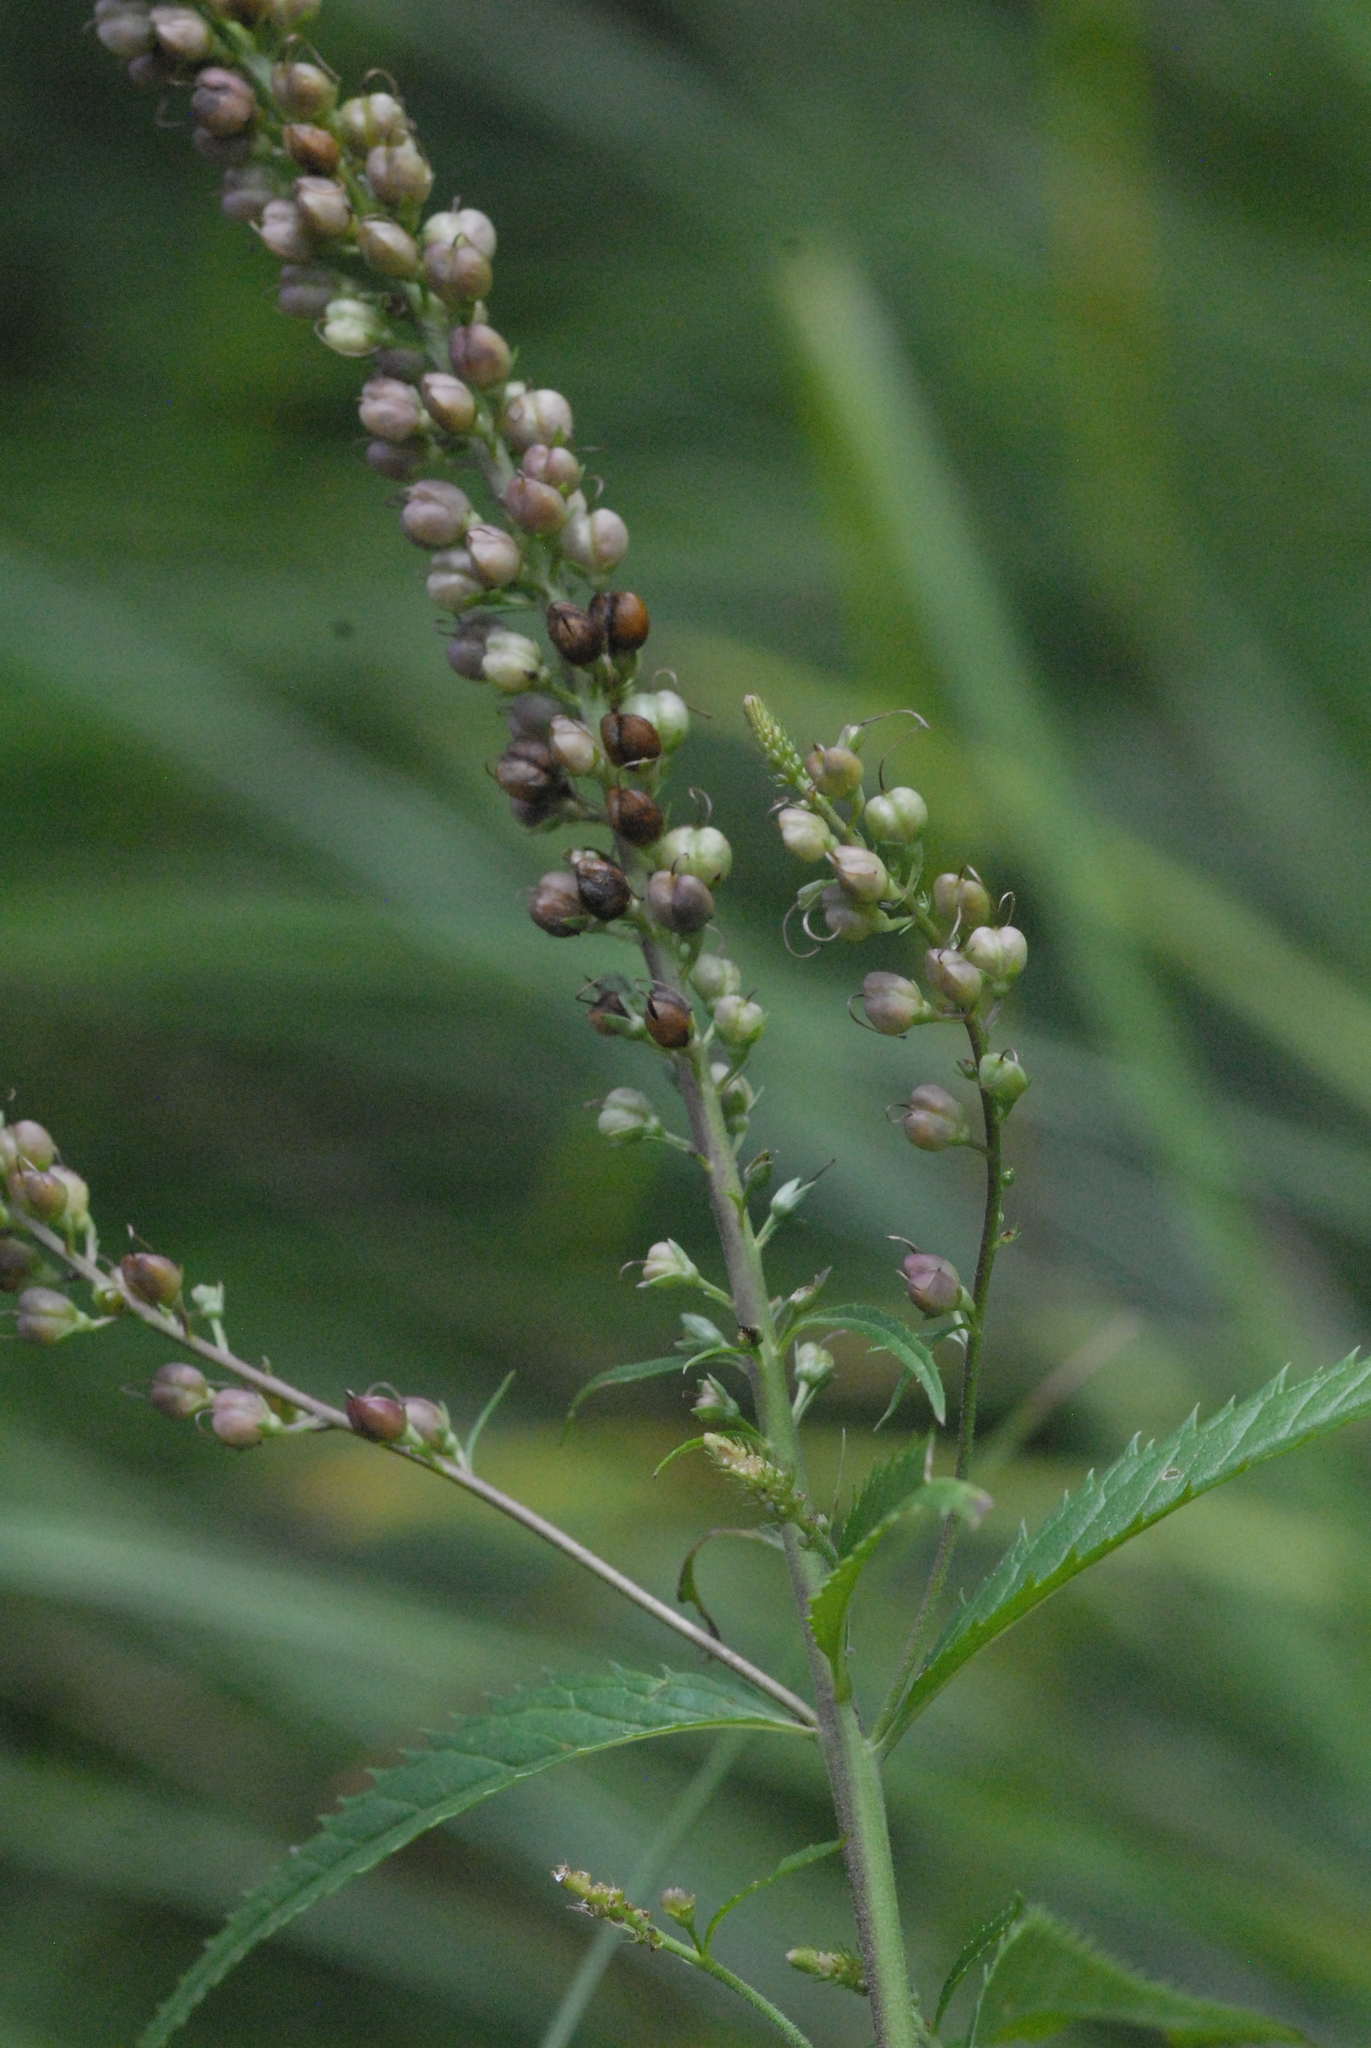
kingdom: Plantae
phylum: Tracheophyta
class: Magnoliopsida
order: Lamiales
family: Plantaginaceae
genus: Veronica
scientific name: Veronica longifolia
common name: Garden speedwell
